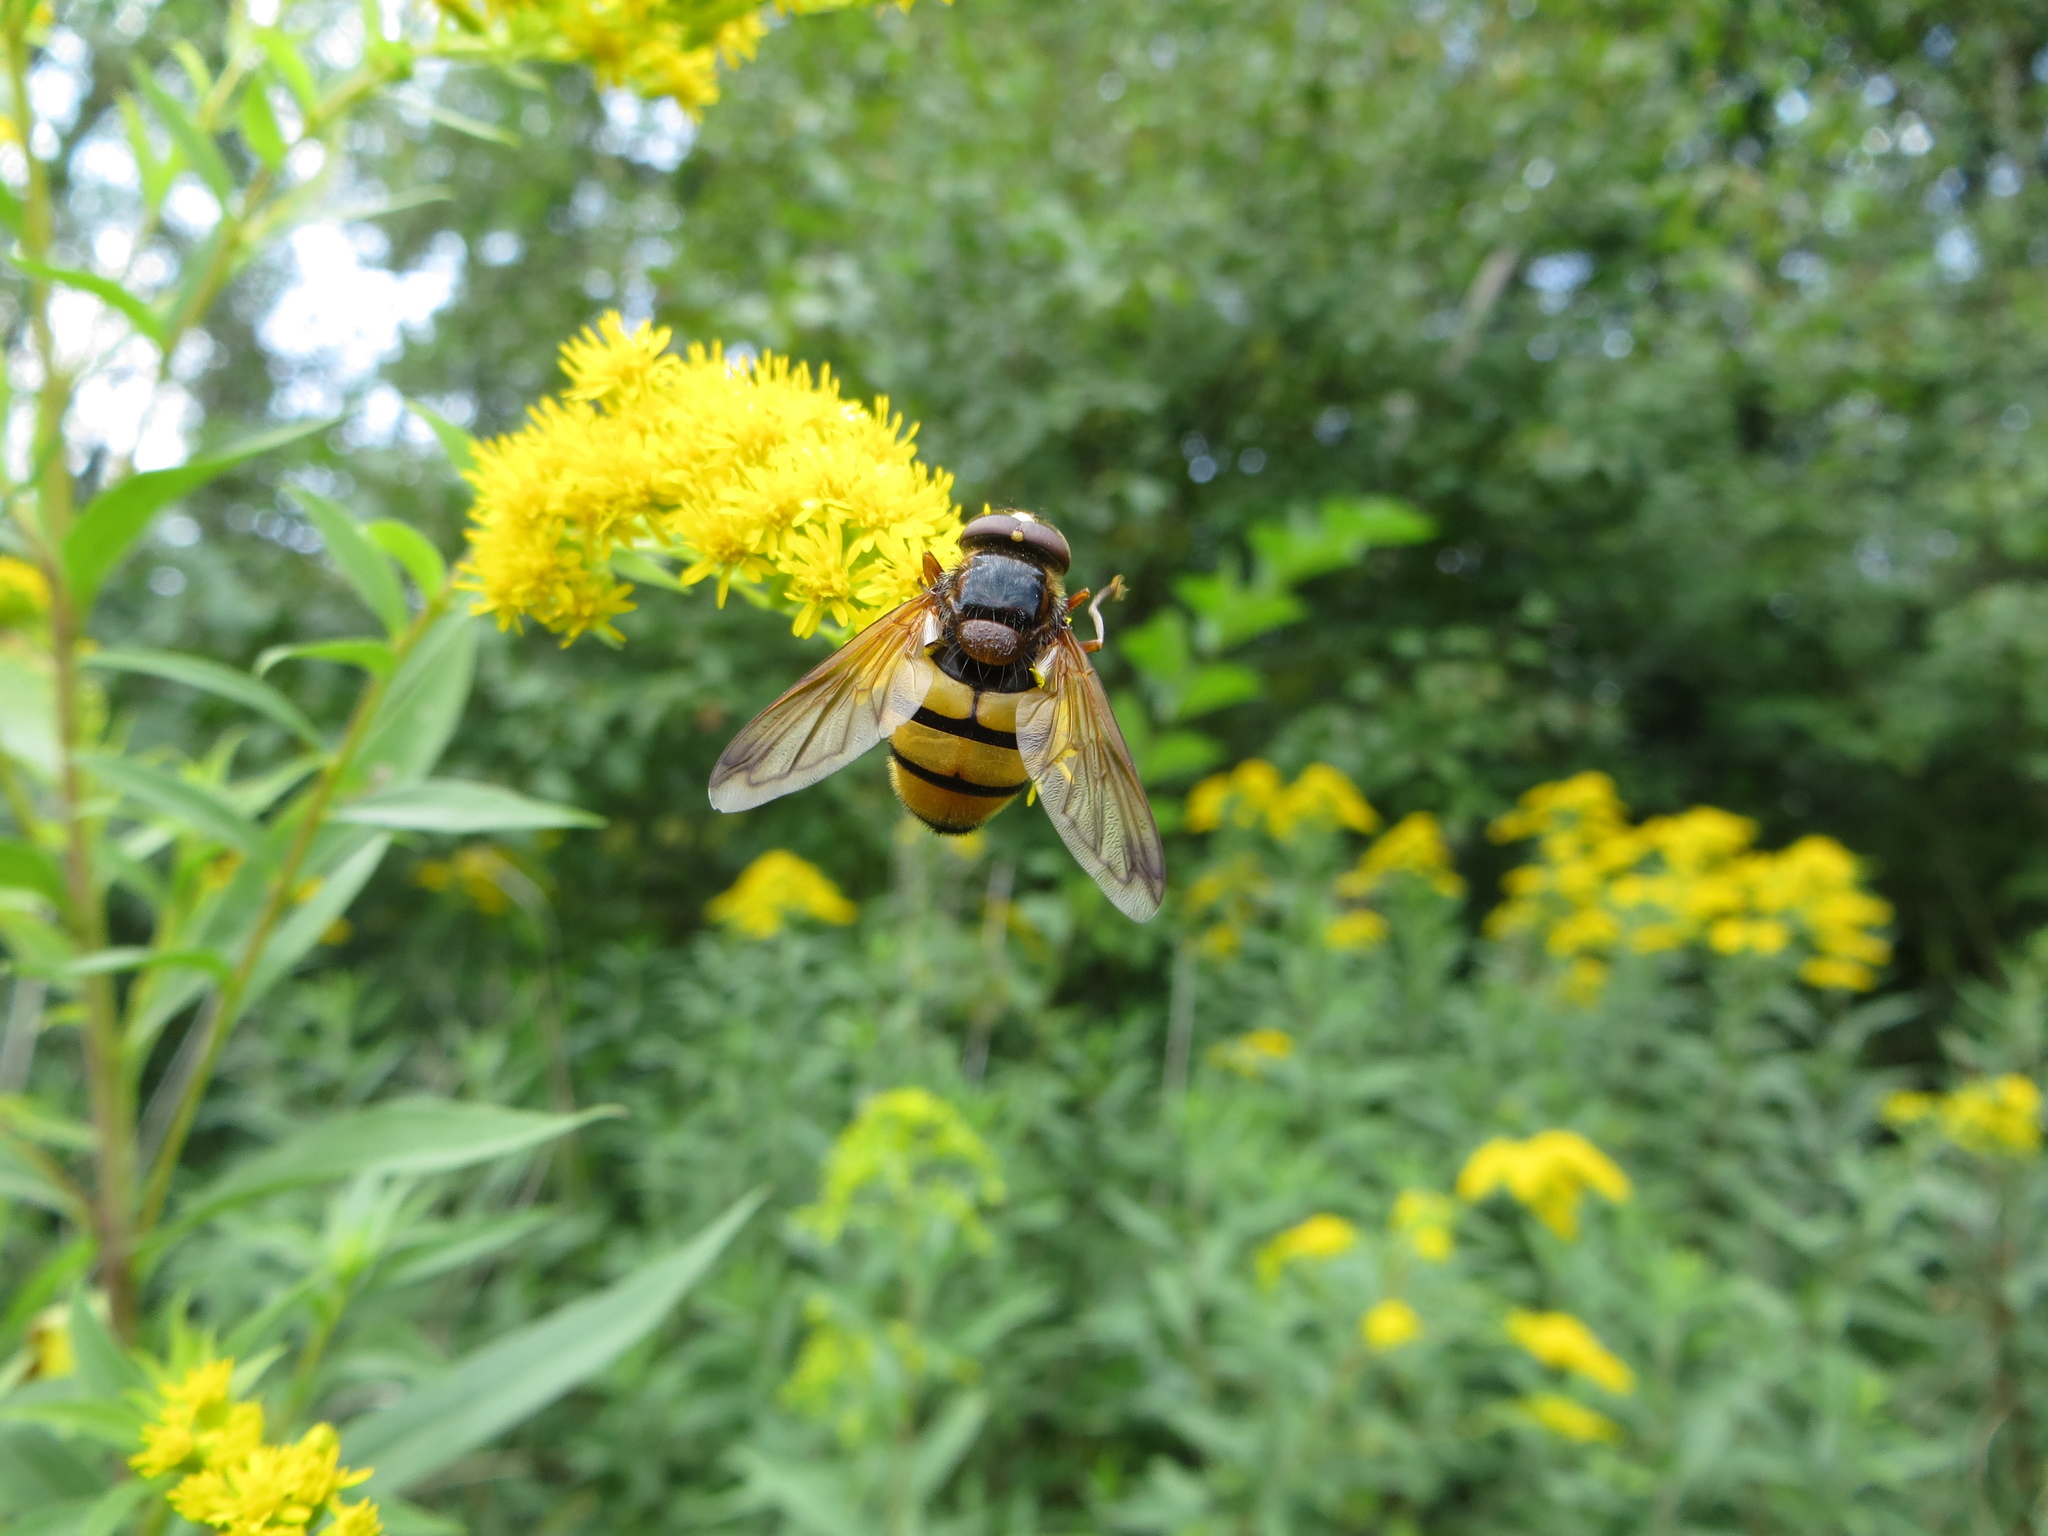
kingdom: Animalia
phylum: Arthropoda
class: Insecta
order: Diptera
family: Syrphidae
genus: Volucella
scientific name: Volucella inanis
